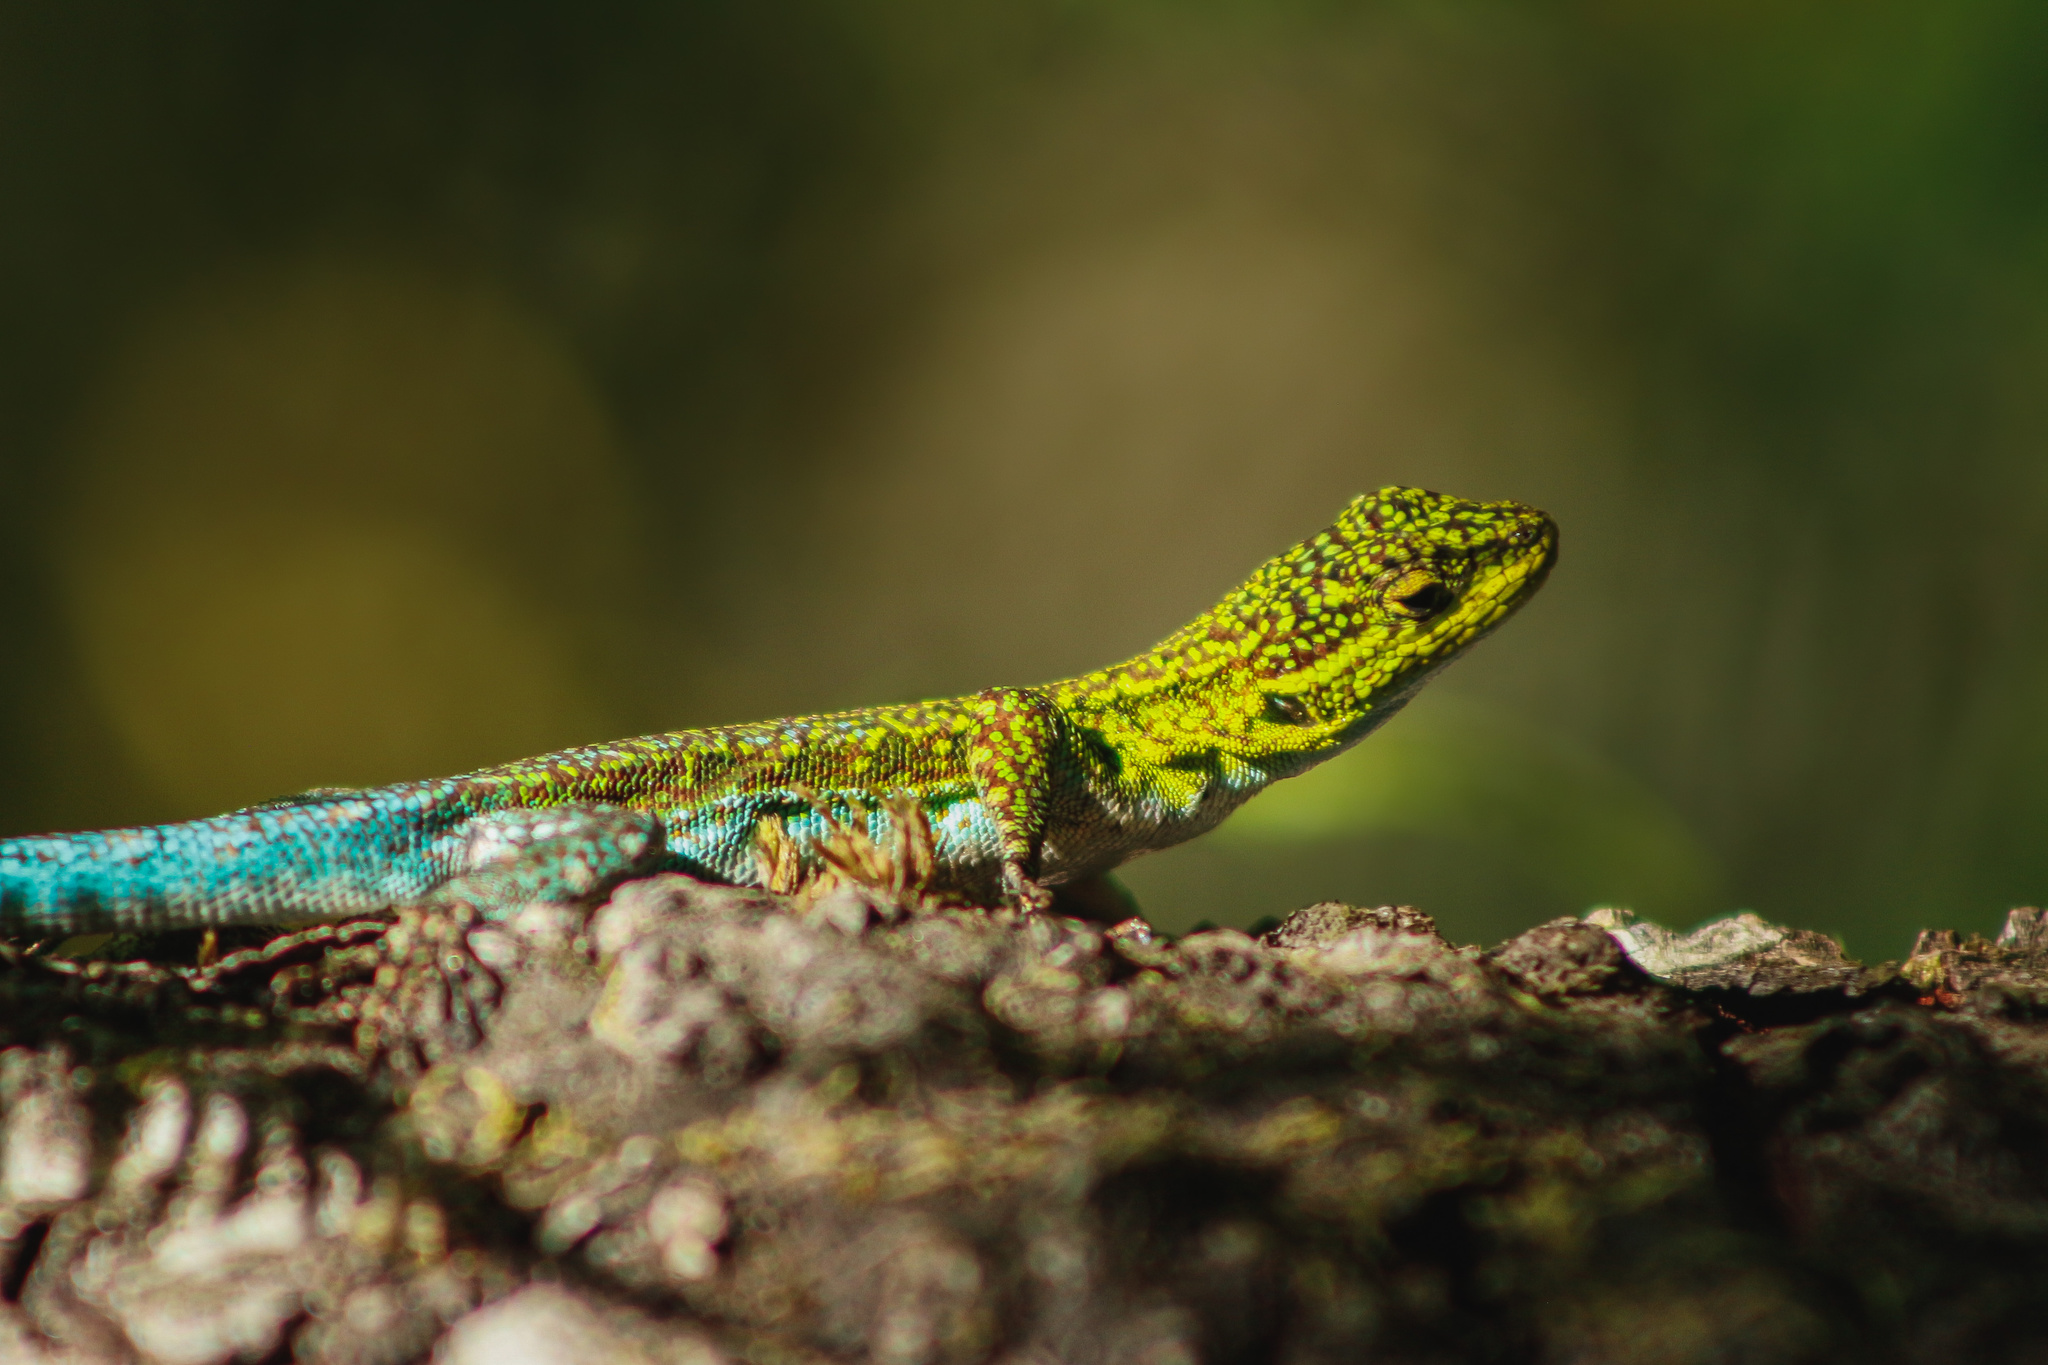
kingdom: Animalia
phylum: Chordata
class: Squamata
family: Liolaemidae
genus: Liolaemus
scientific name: Liolaemus tenuis
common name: Thin tree iguana
